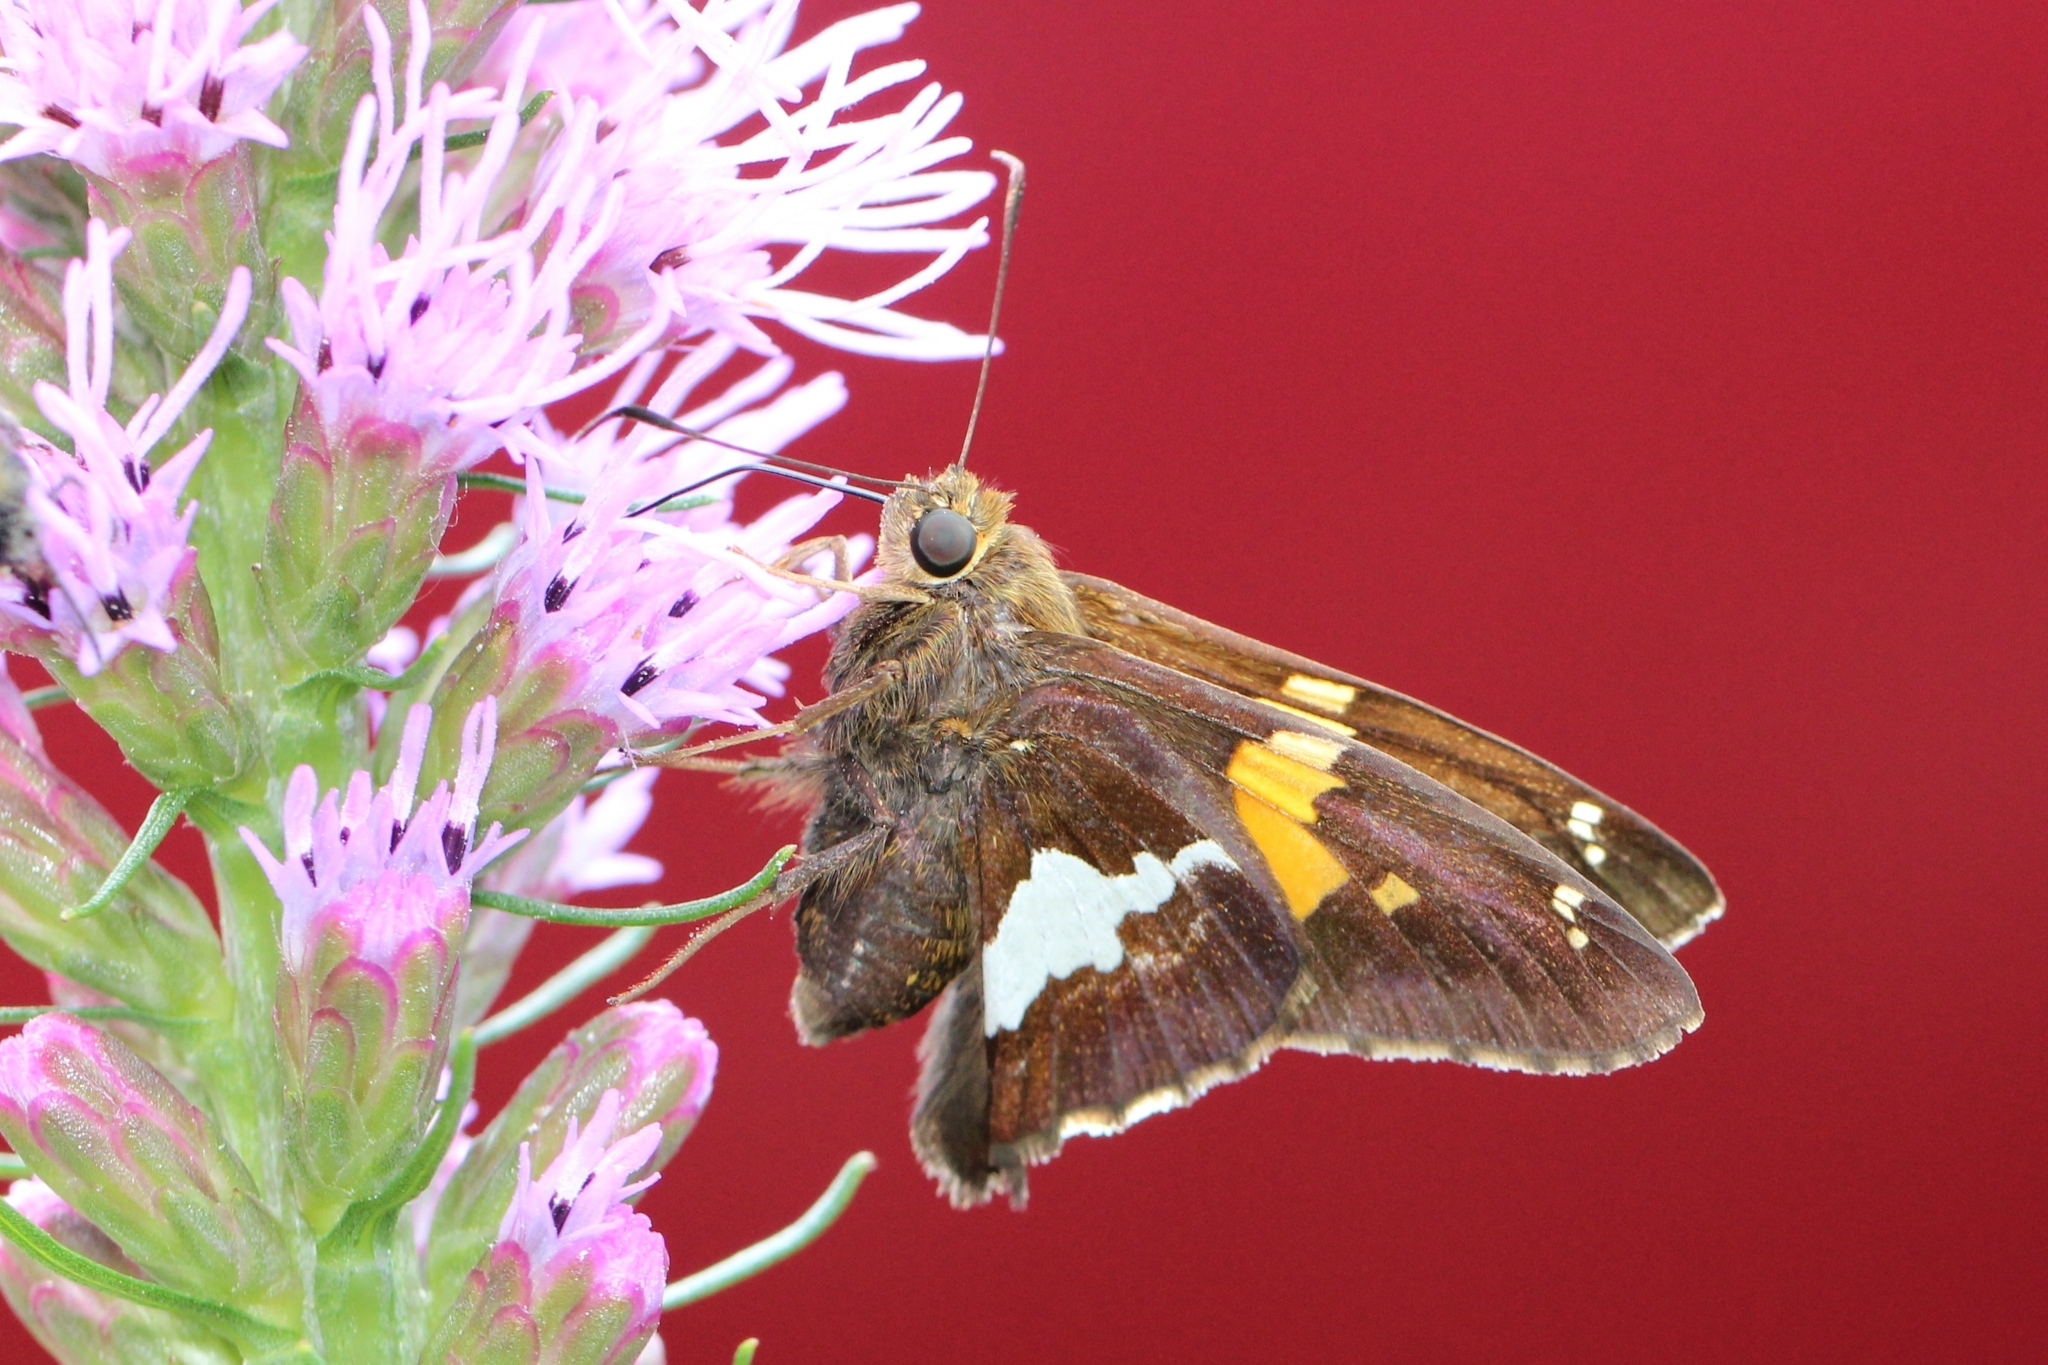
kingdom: Animalia
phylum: Arthropoda
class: Insecta
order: Lepidoptera
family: Hesperiidae
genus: Epargyreus
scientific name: Epargyreus clarus
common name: Silver-spotted skipper
